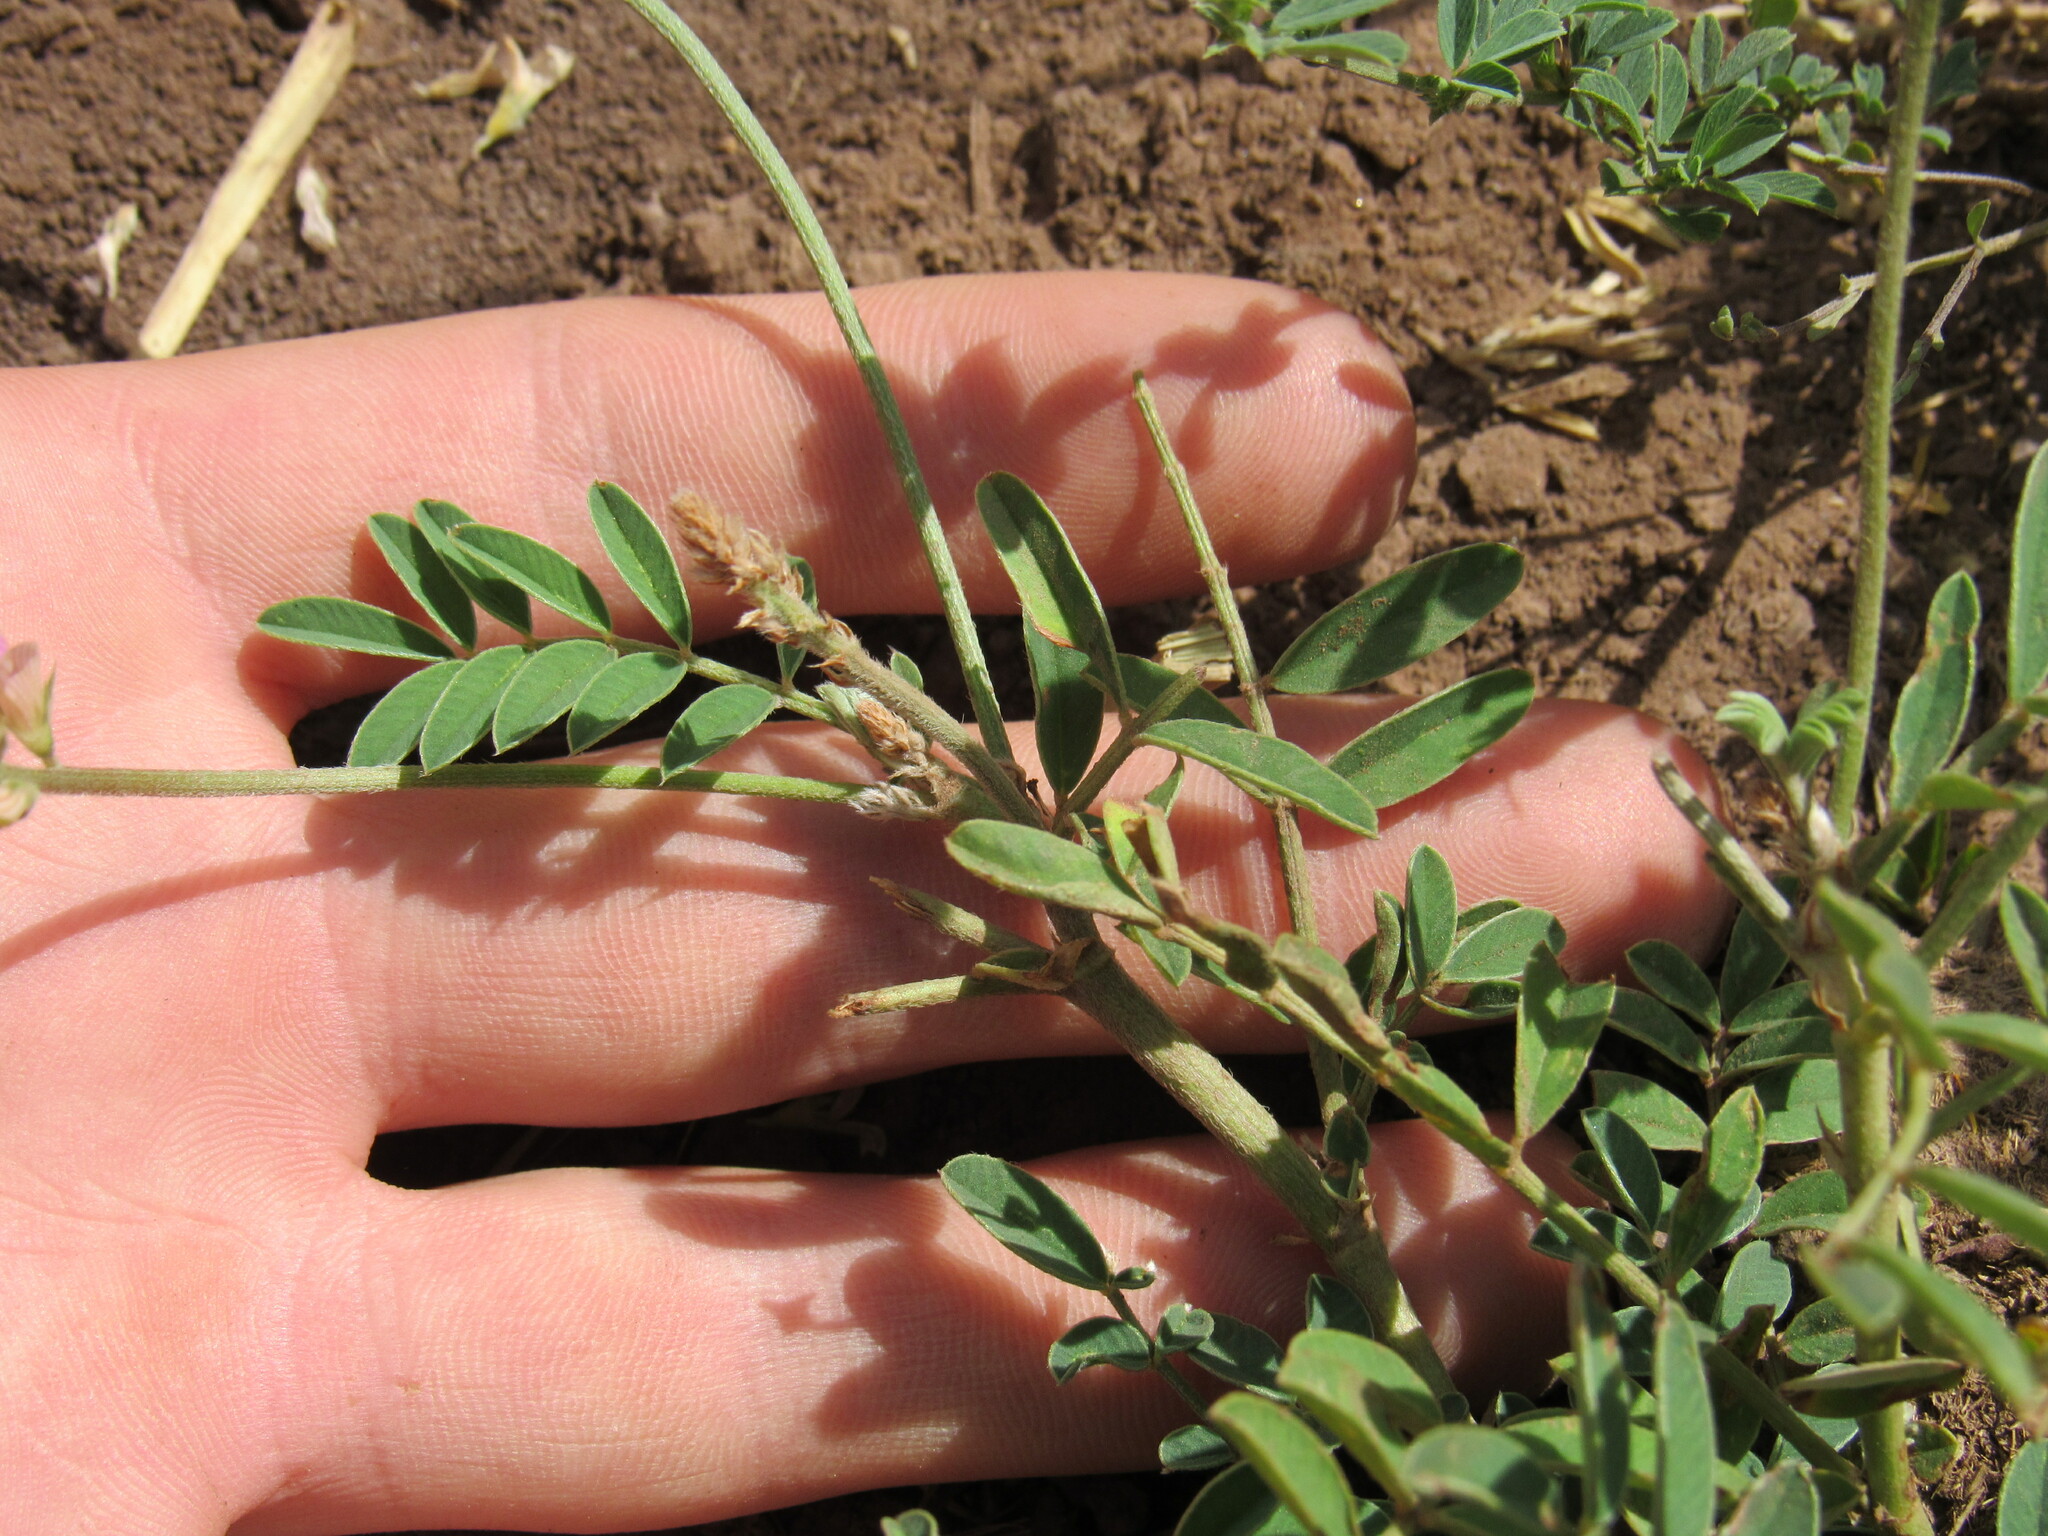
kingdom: Plantae
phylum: Tracheophyta
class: Magnoliopsida
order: Fabales
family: Fabaceae
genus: Onobrychis
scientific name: Onobrychis viciifolia
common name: Sainfoin
